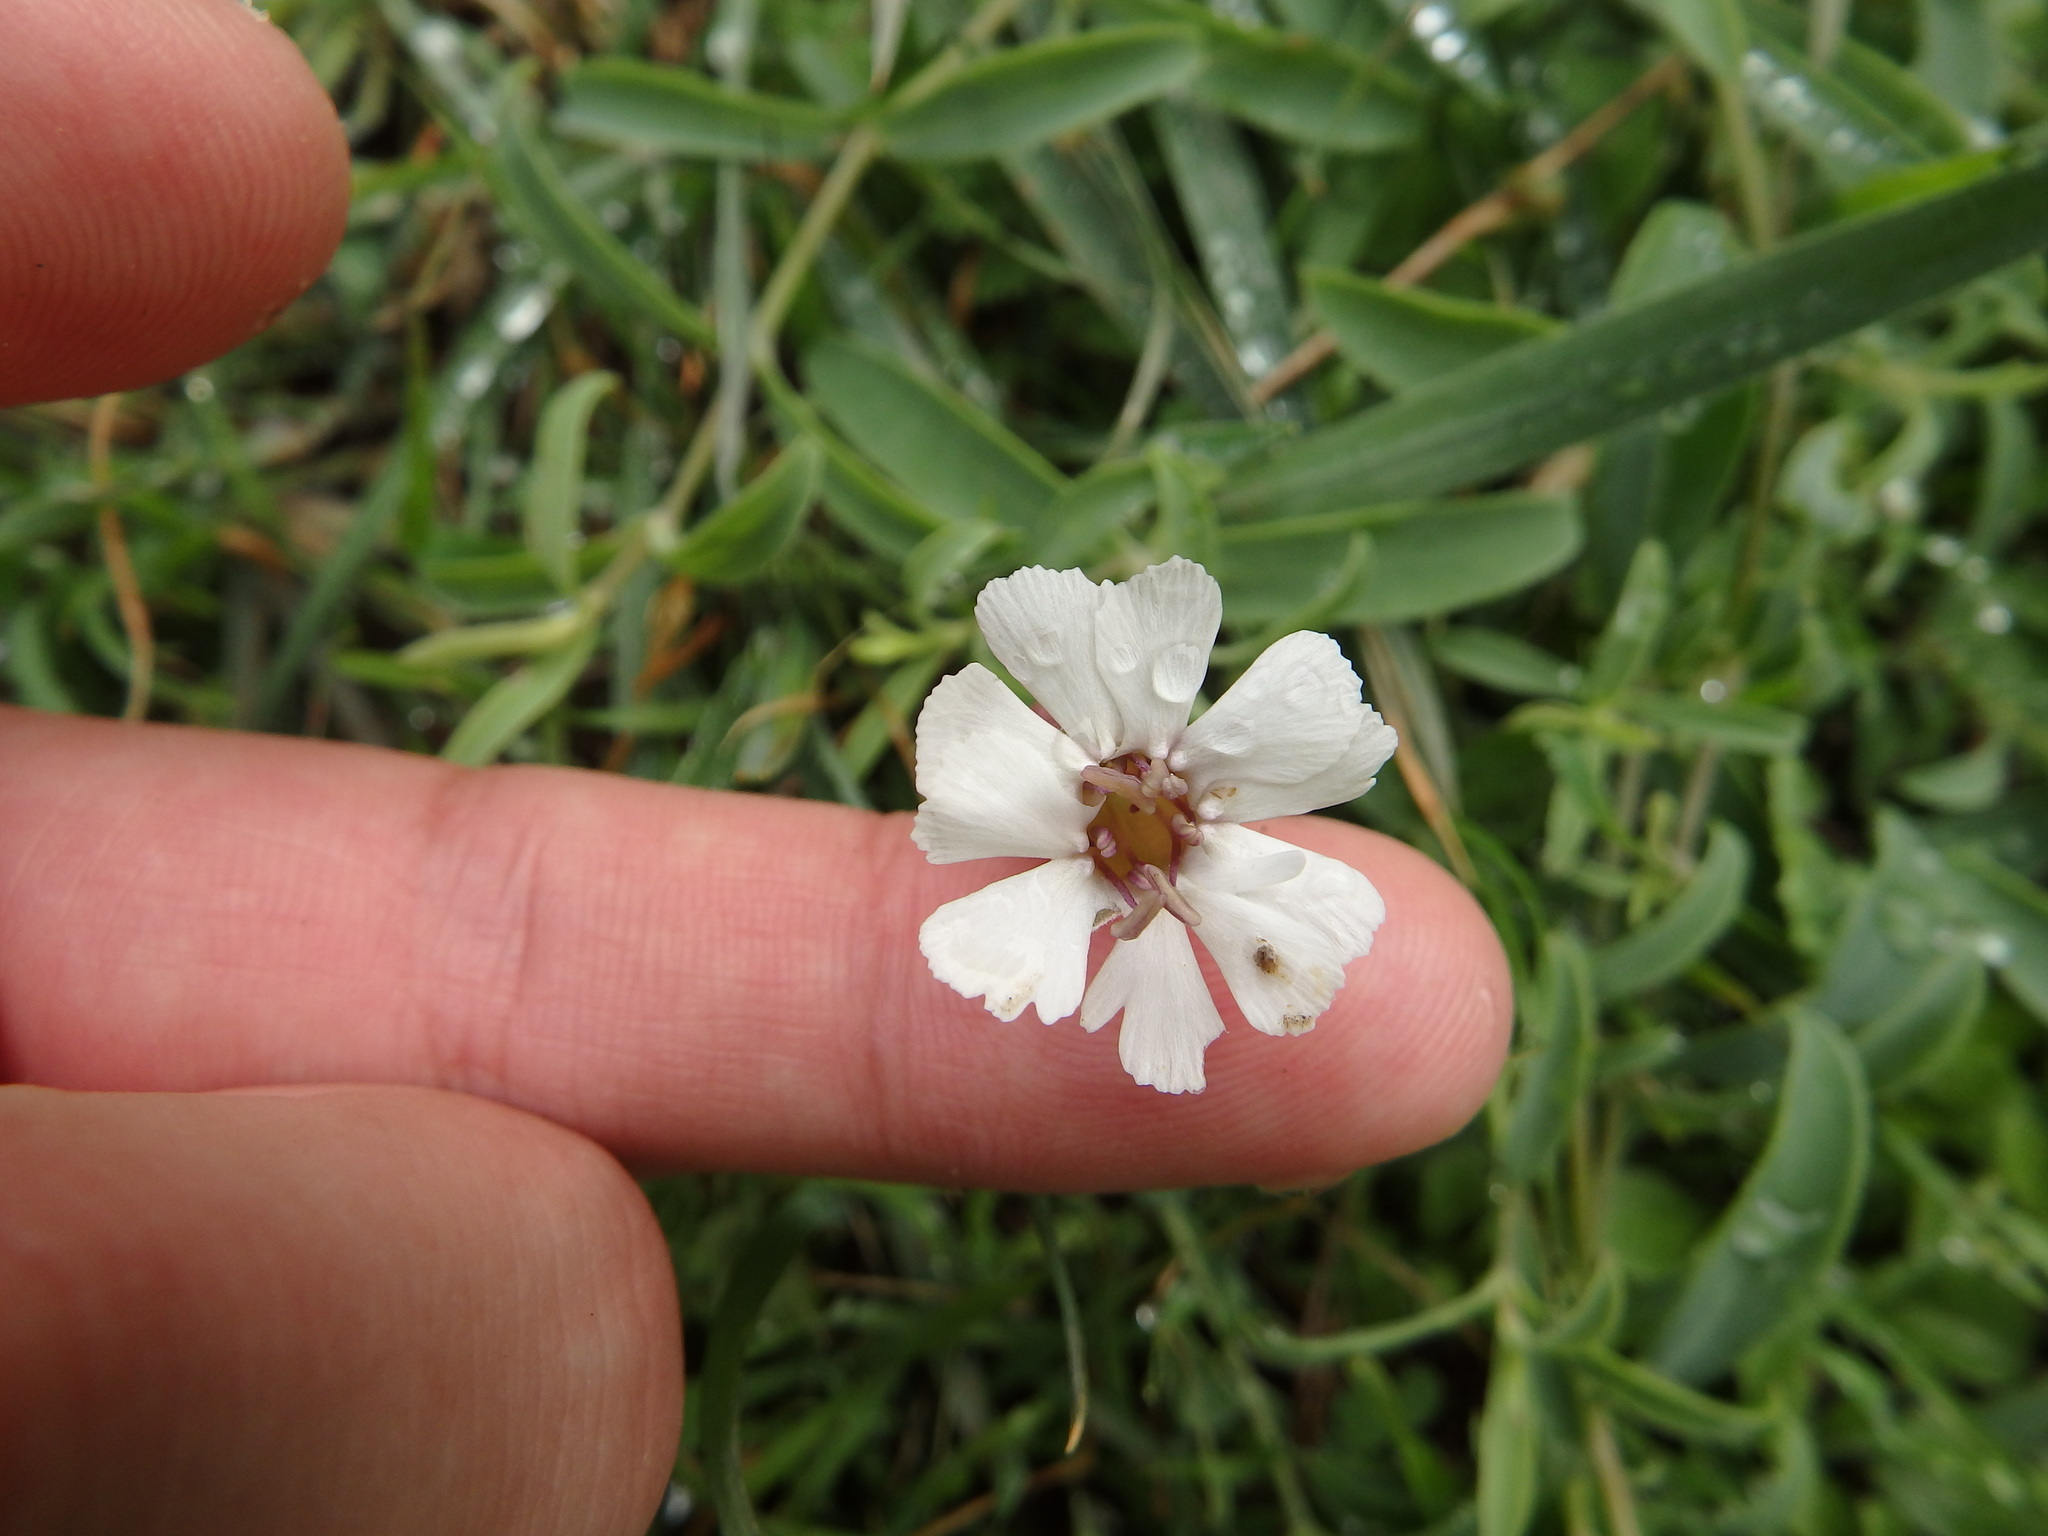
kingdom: Plantae
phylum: Tracheophyta
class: Magnoliopsida
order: Caryophyllales
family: Caryophyllaceae
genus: Silene
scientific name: Silene uniflora
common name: Sea campion
